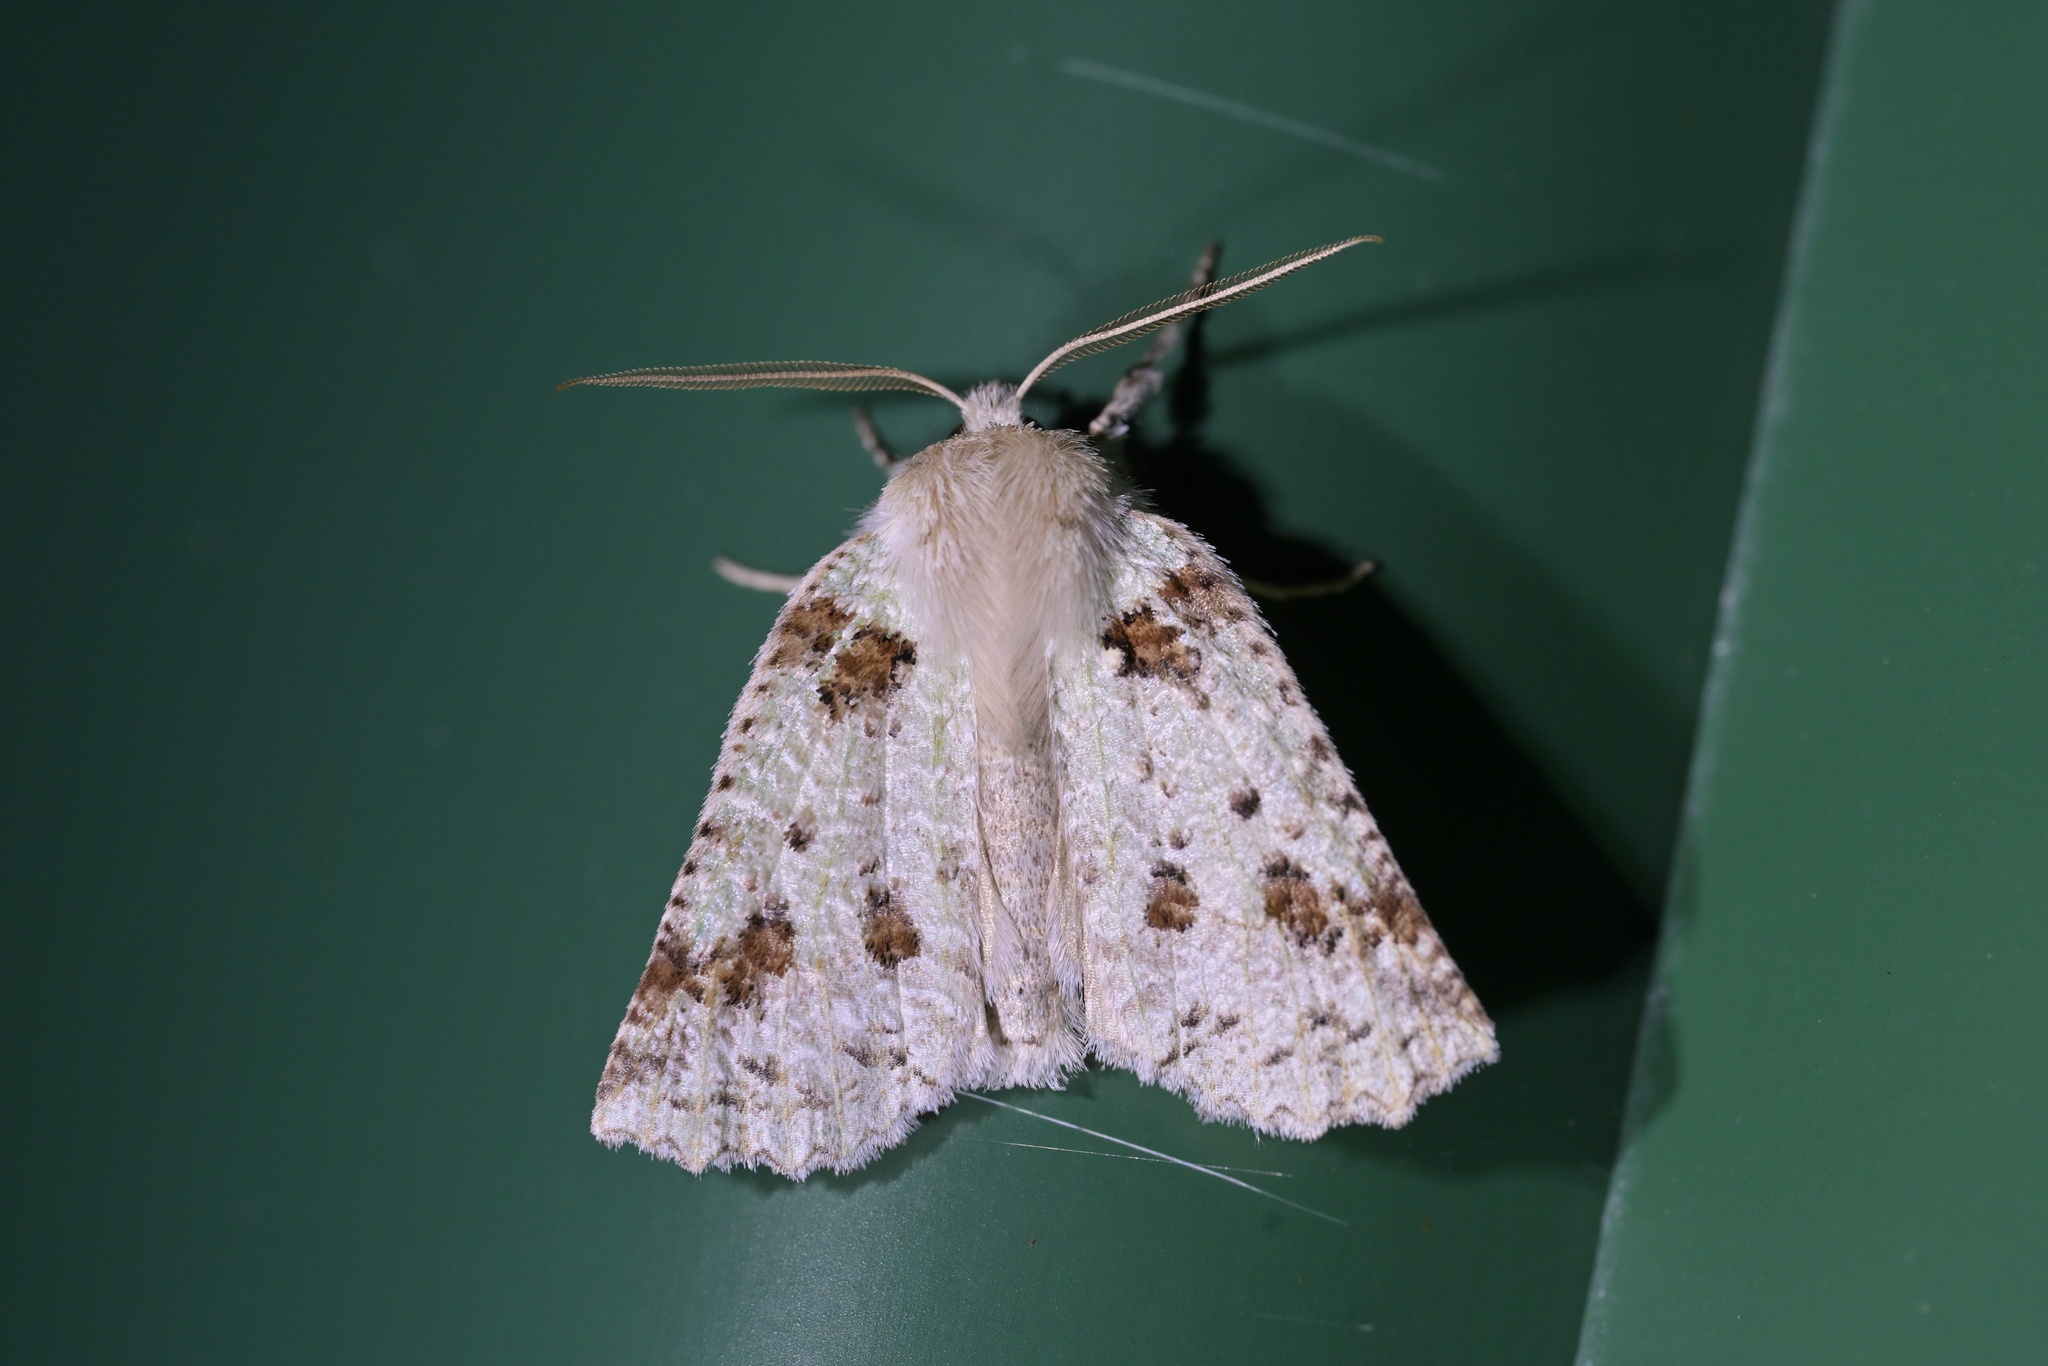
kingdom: Animalia
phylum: Arthropoda
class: Insecta
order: Lepidoptera
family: Geometridae
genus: Declana
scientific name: Declana floccosa
